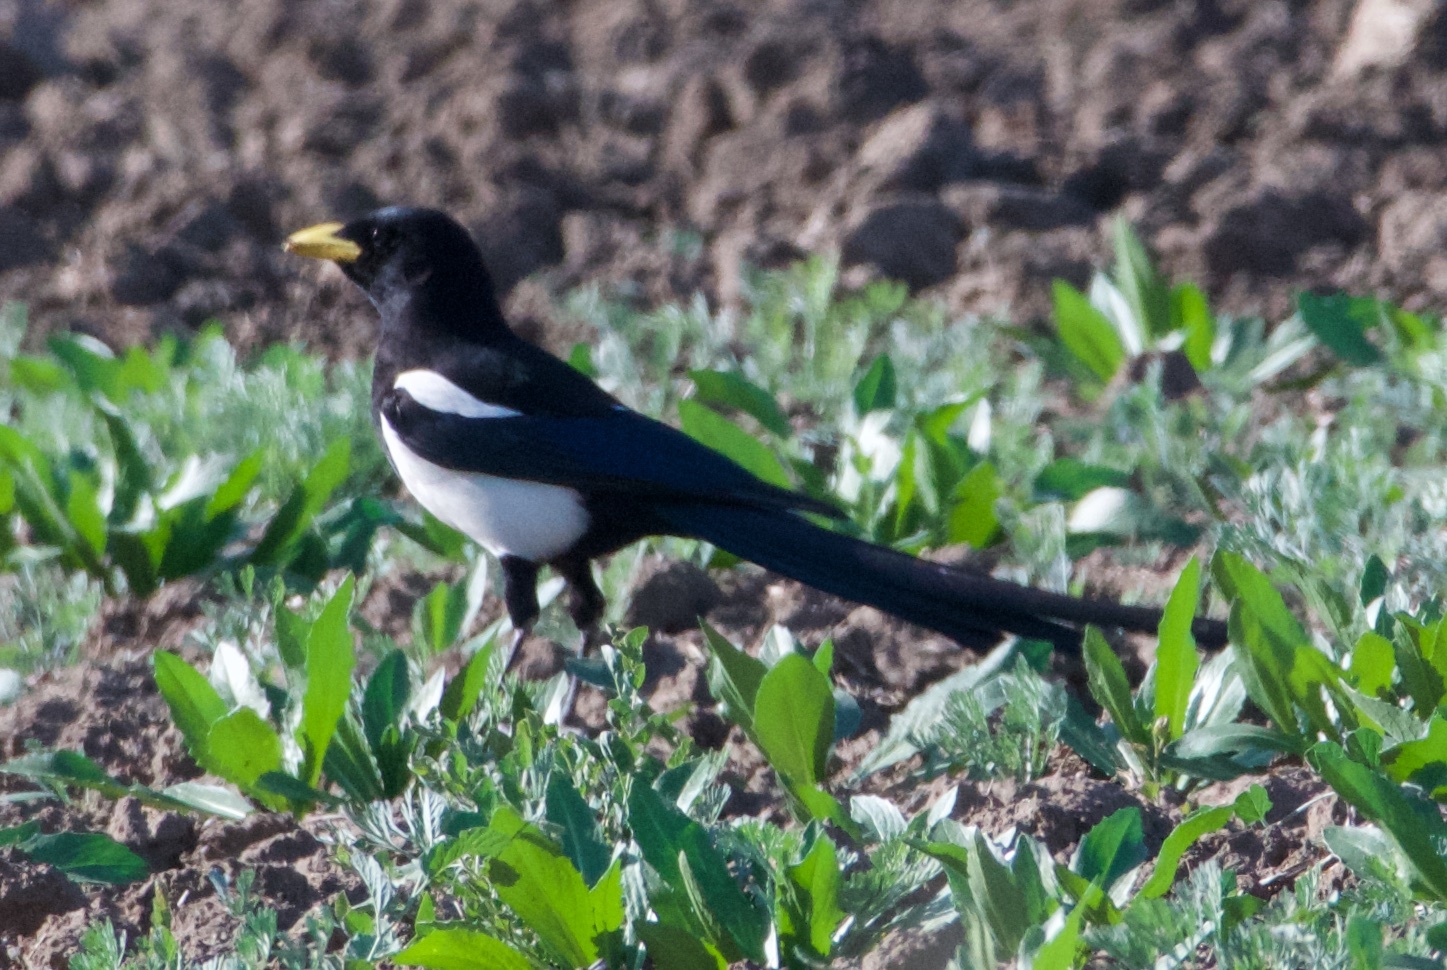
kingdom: Animalia
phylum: Chordata
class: Aves
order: Passeriformes
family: Corvidae
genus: Pica
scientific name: Pica nuttalli
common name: Yellow-billed magpie
